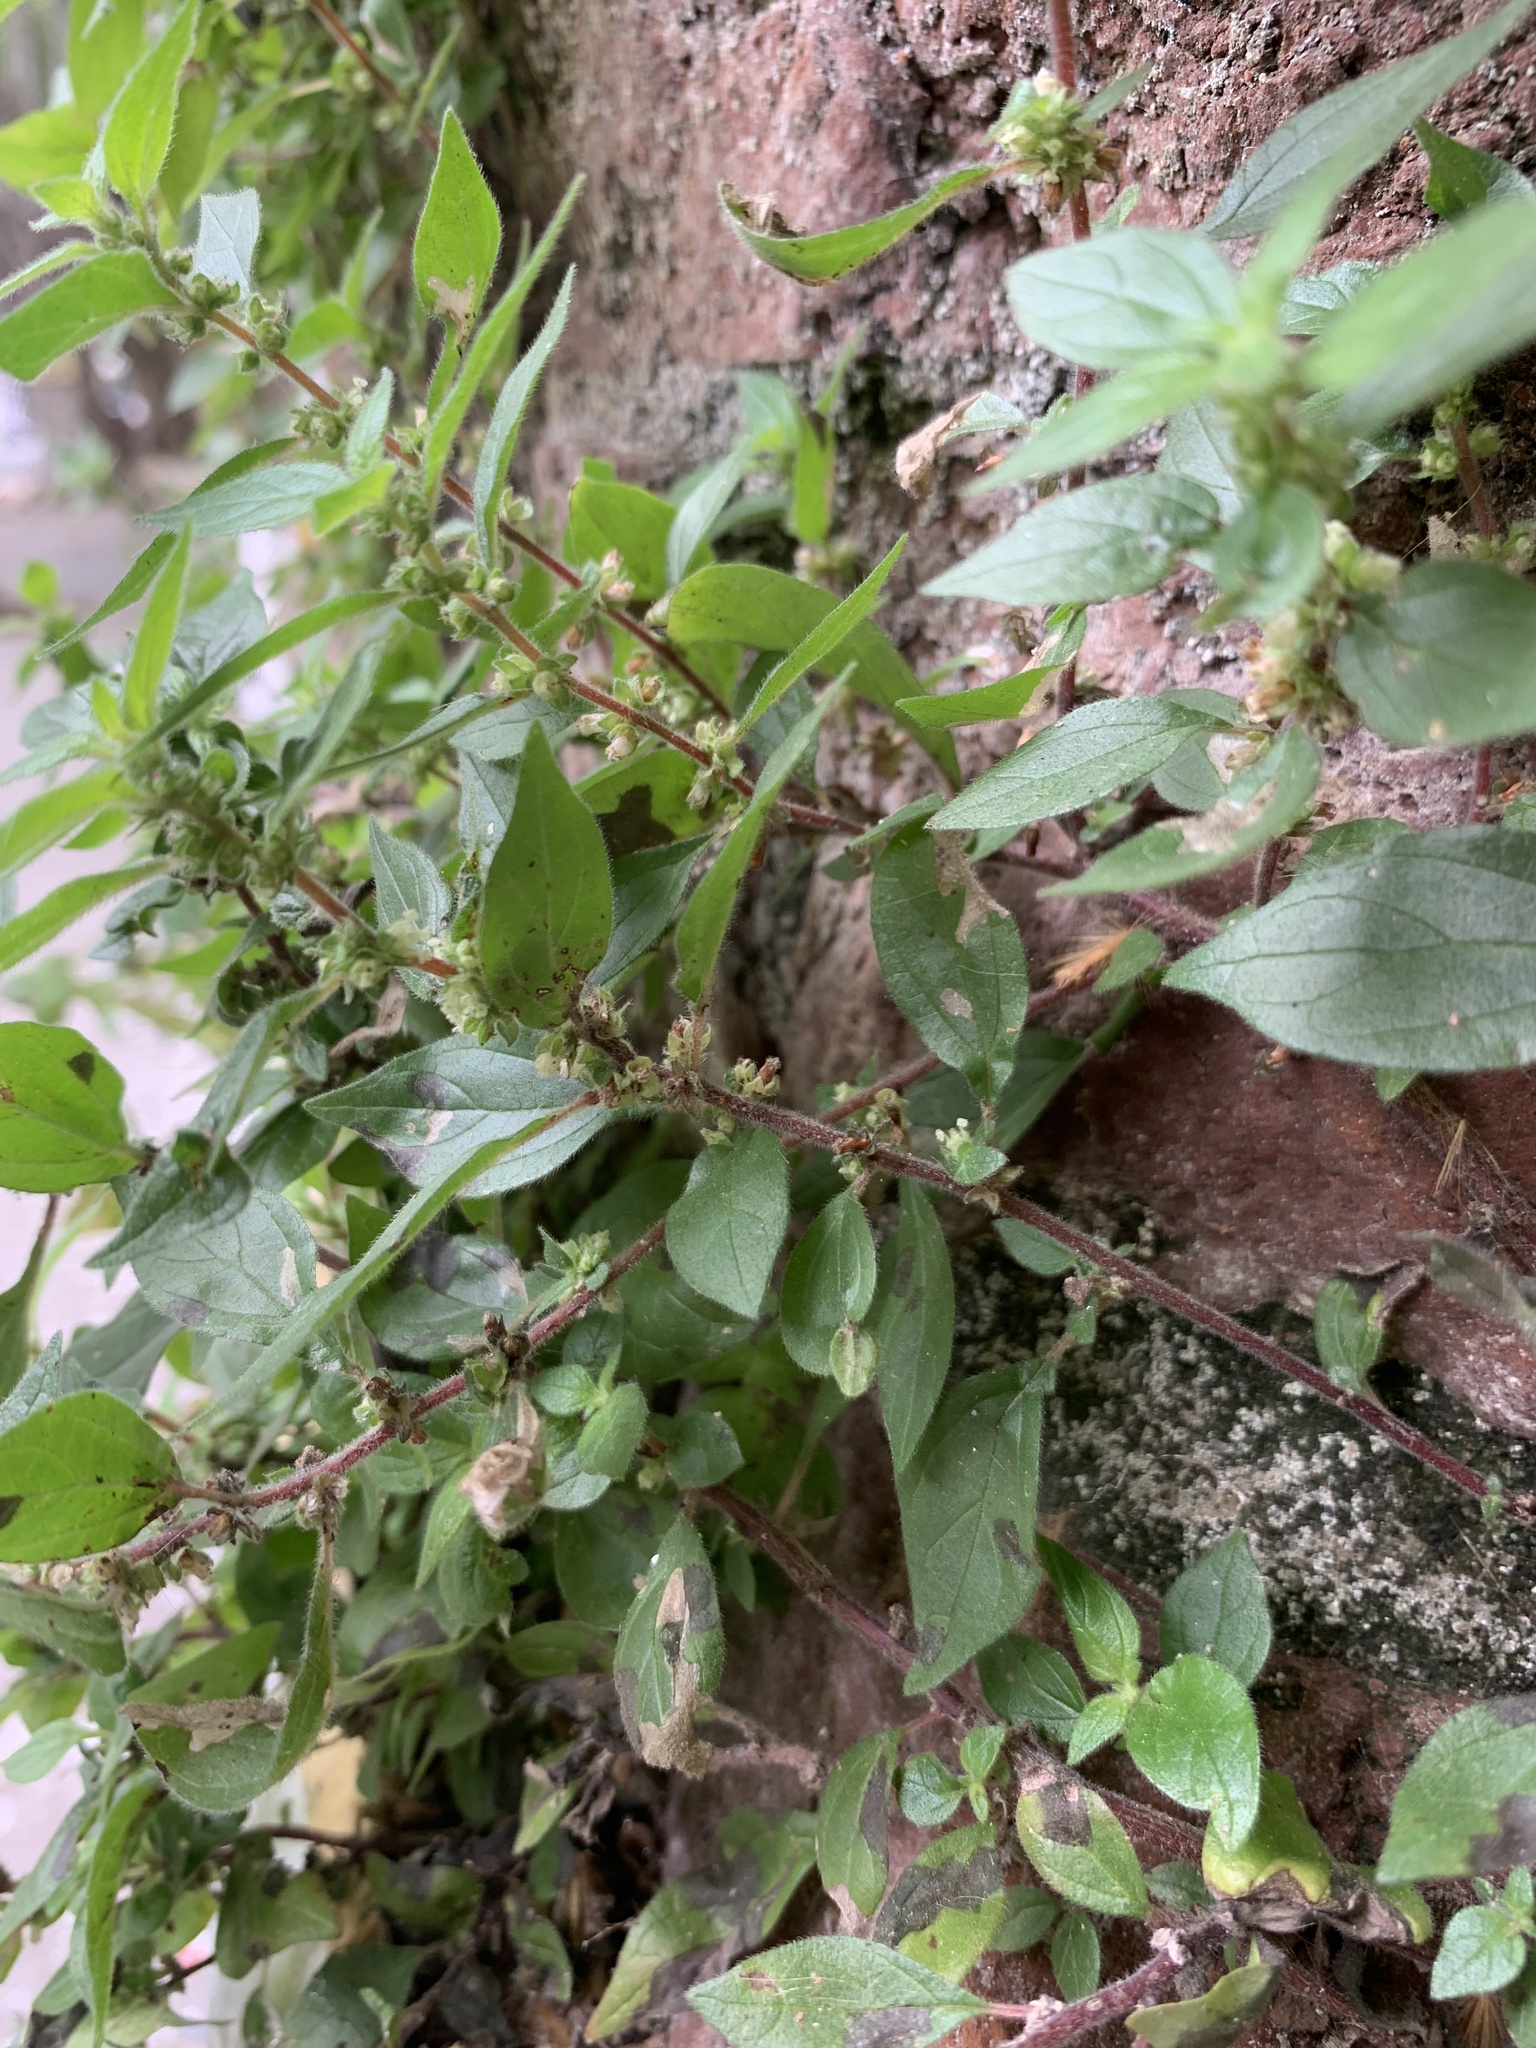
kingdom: Plantae
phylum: Tracheophyta
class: Magnoliopsida
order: Rosales
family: Urticaceae
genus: Parietaria
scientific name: Parietaria judaica
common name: Pellitory-of-the-wall
